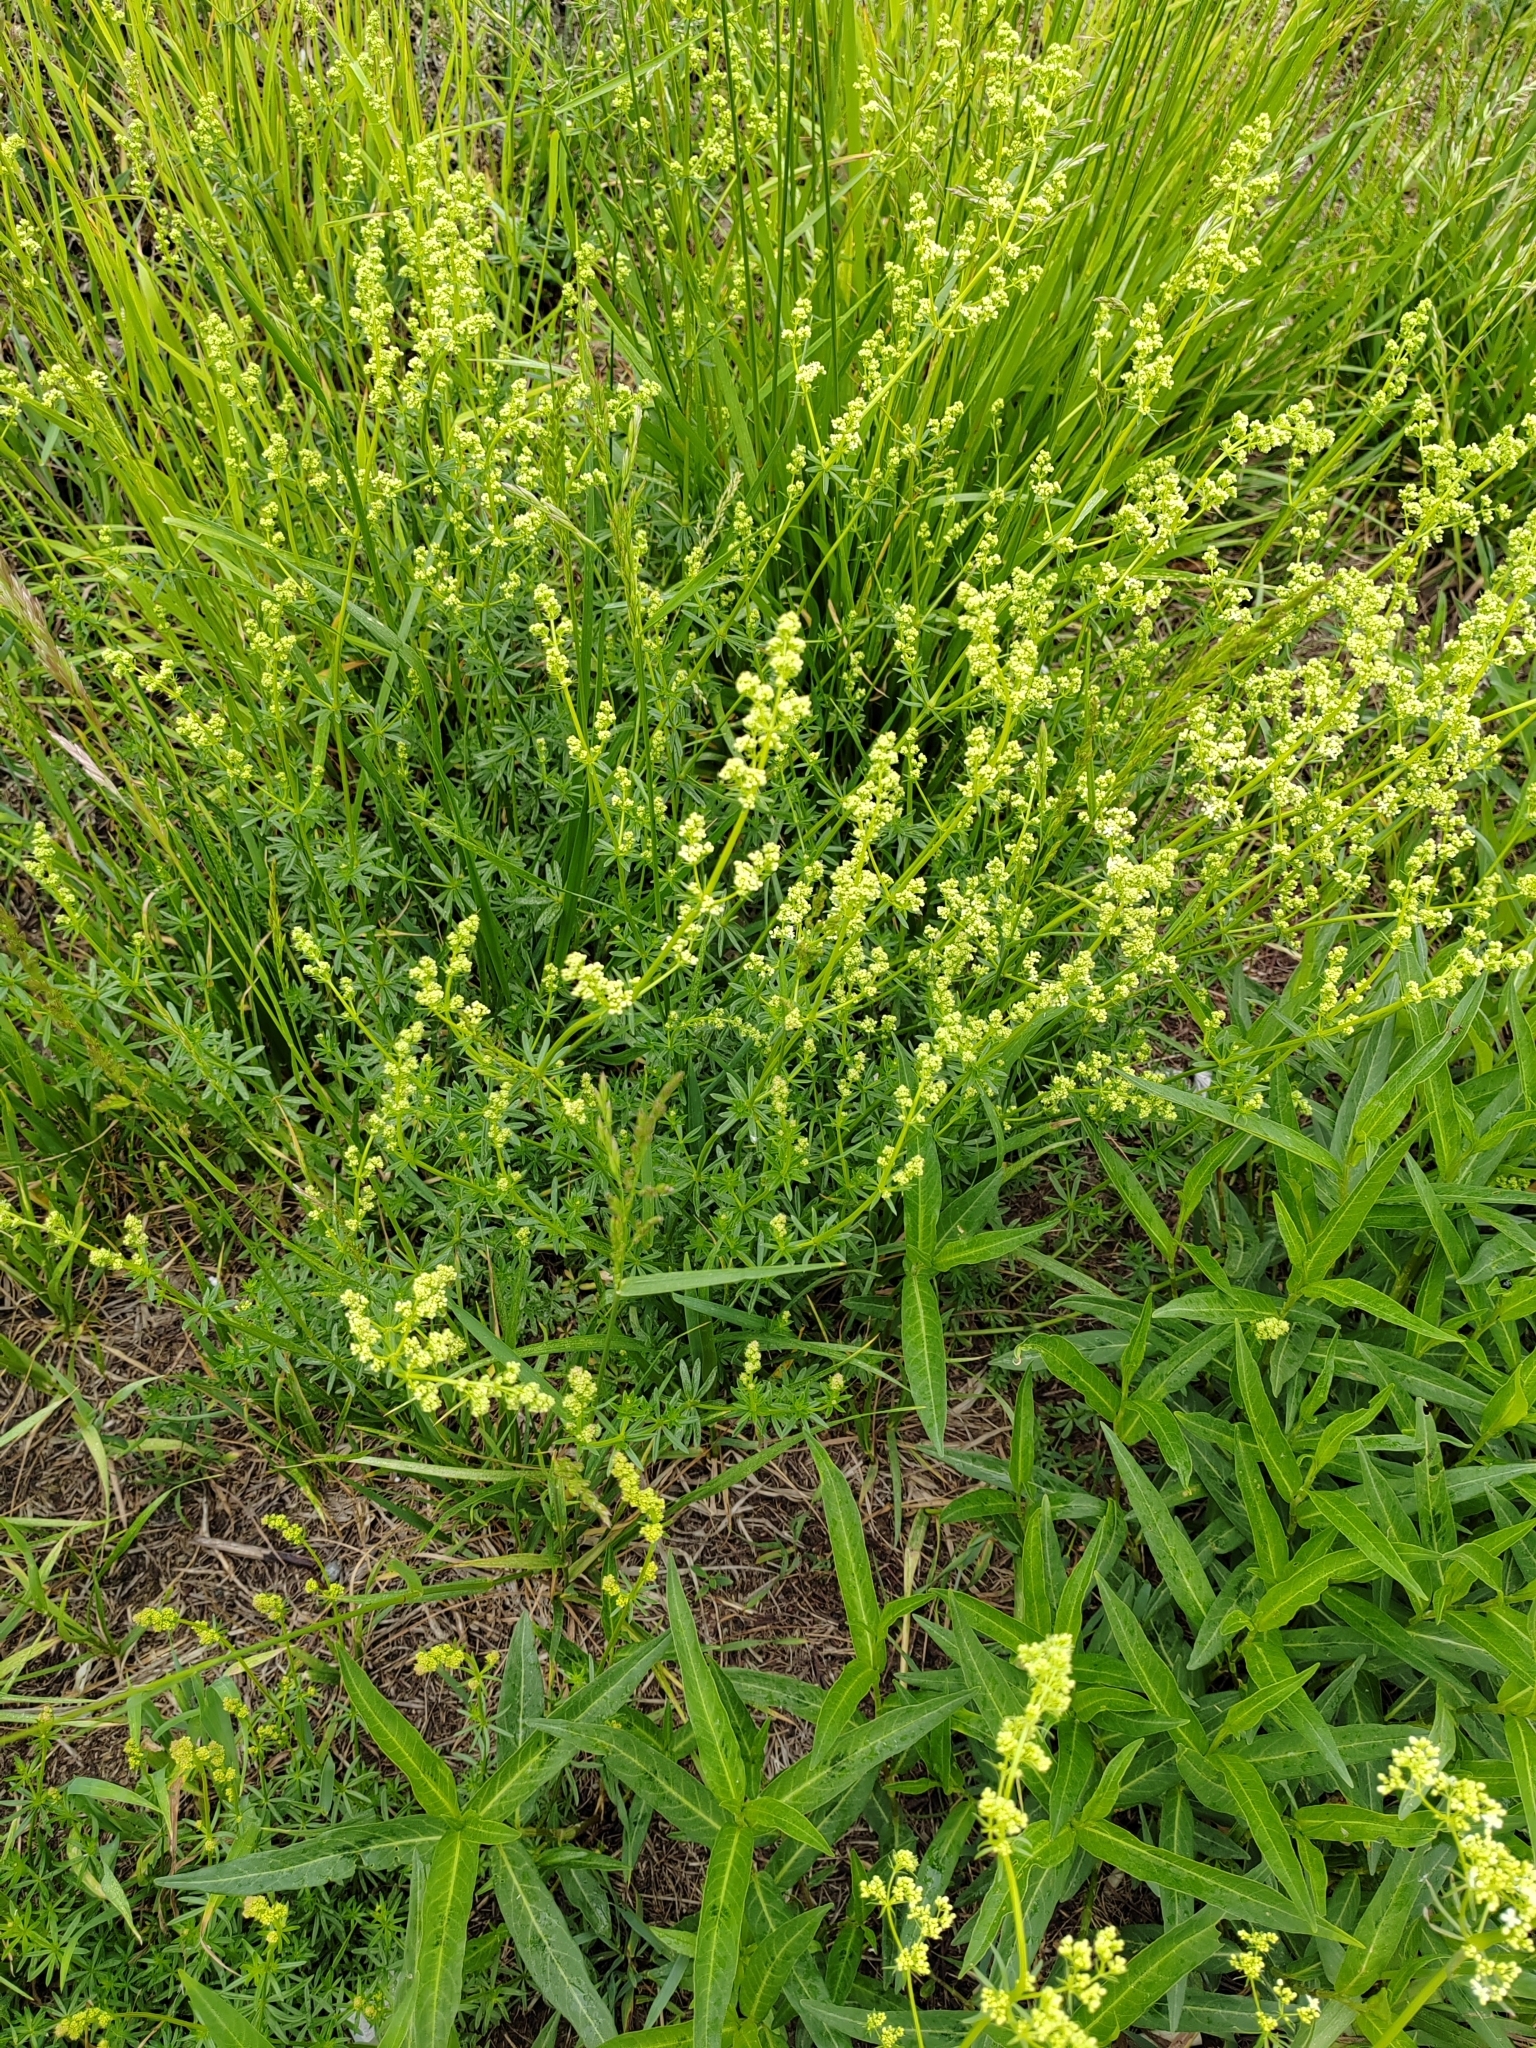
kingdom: Plantae
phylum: Tracheophyta
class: Magnoliopsida
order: Gentianales
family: Rubiaceae
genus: Galium
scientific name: Galium mollugo
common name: Hedge bedstraw
